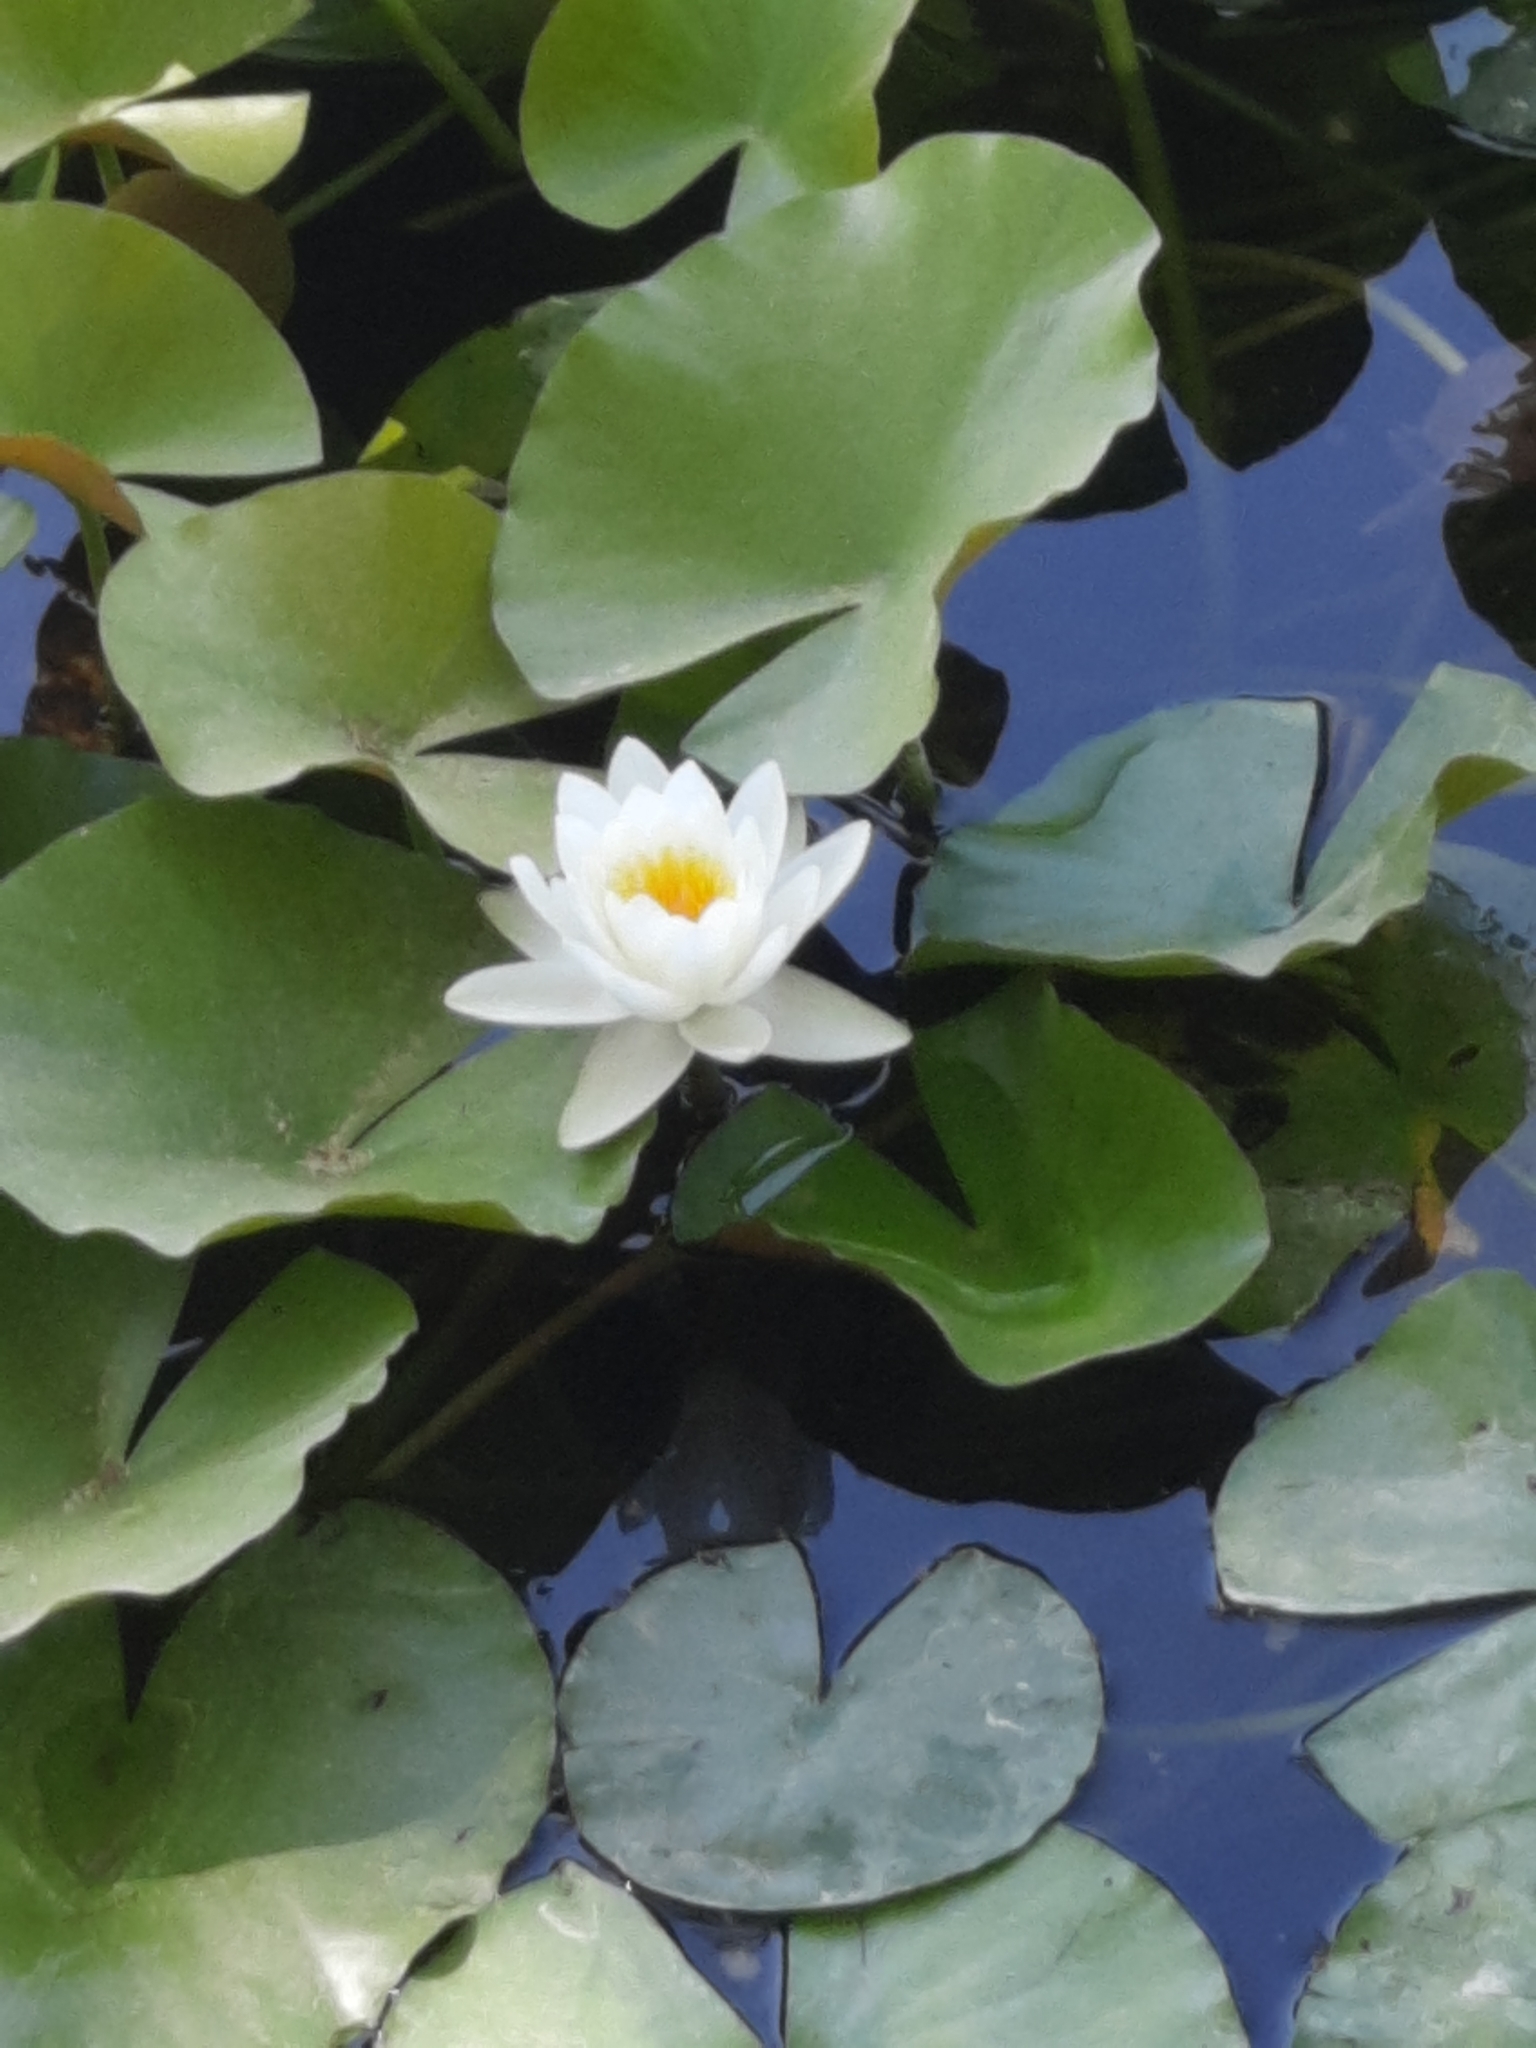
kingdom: Plantae
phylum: Tracheophyta
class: Magnoliopsida
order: Nymphaeales
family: Nymphaeaceae
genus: Nymphaea
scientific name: Nymphaea alba
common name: White water-lily
